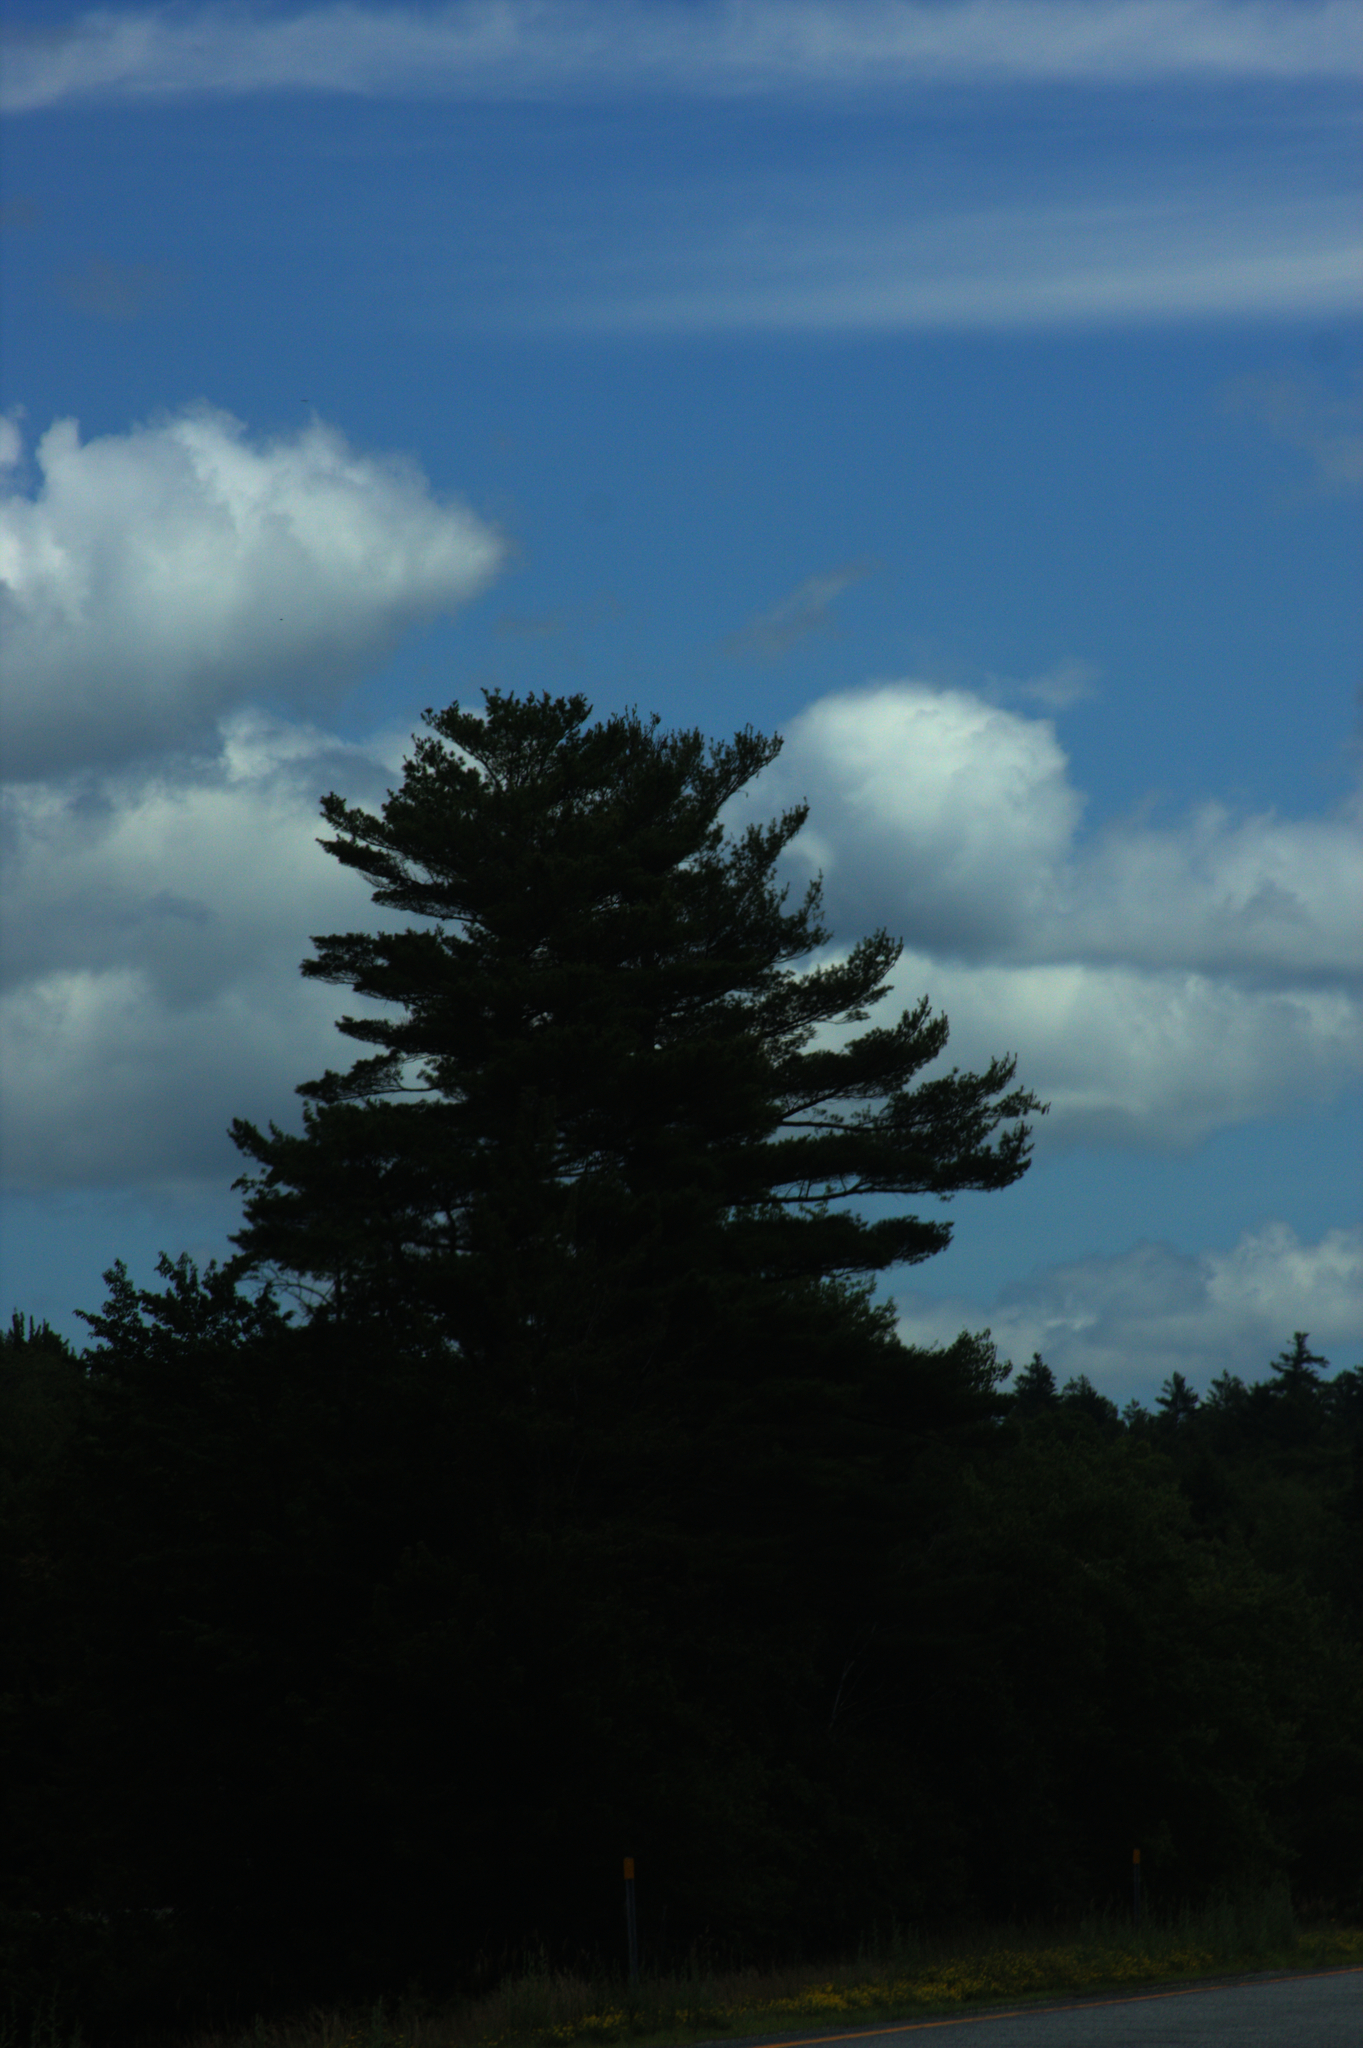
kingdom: Plantae
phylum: Tracheophyta
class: Pinopsida
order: Pinales
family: Pinaceae
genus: Pinus
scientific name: Pinus strobus
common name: Weymouth pine
